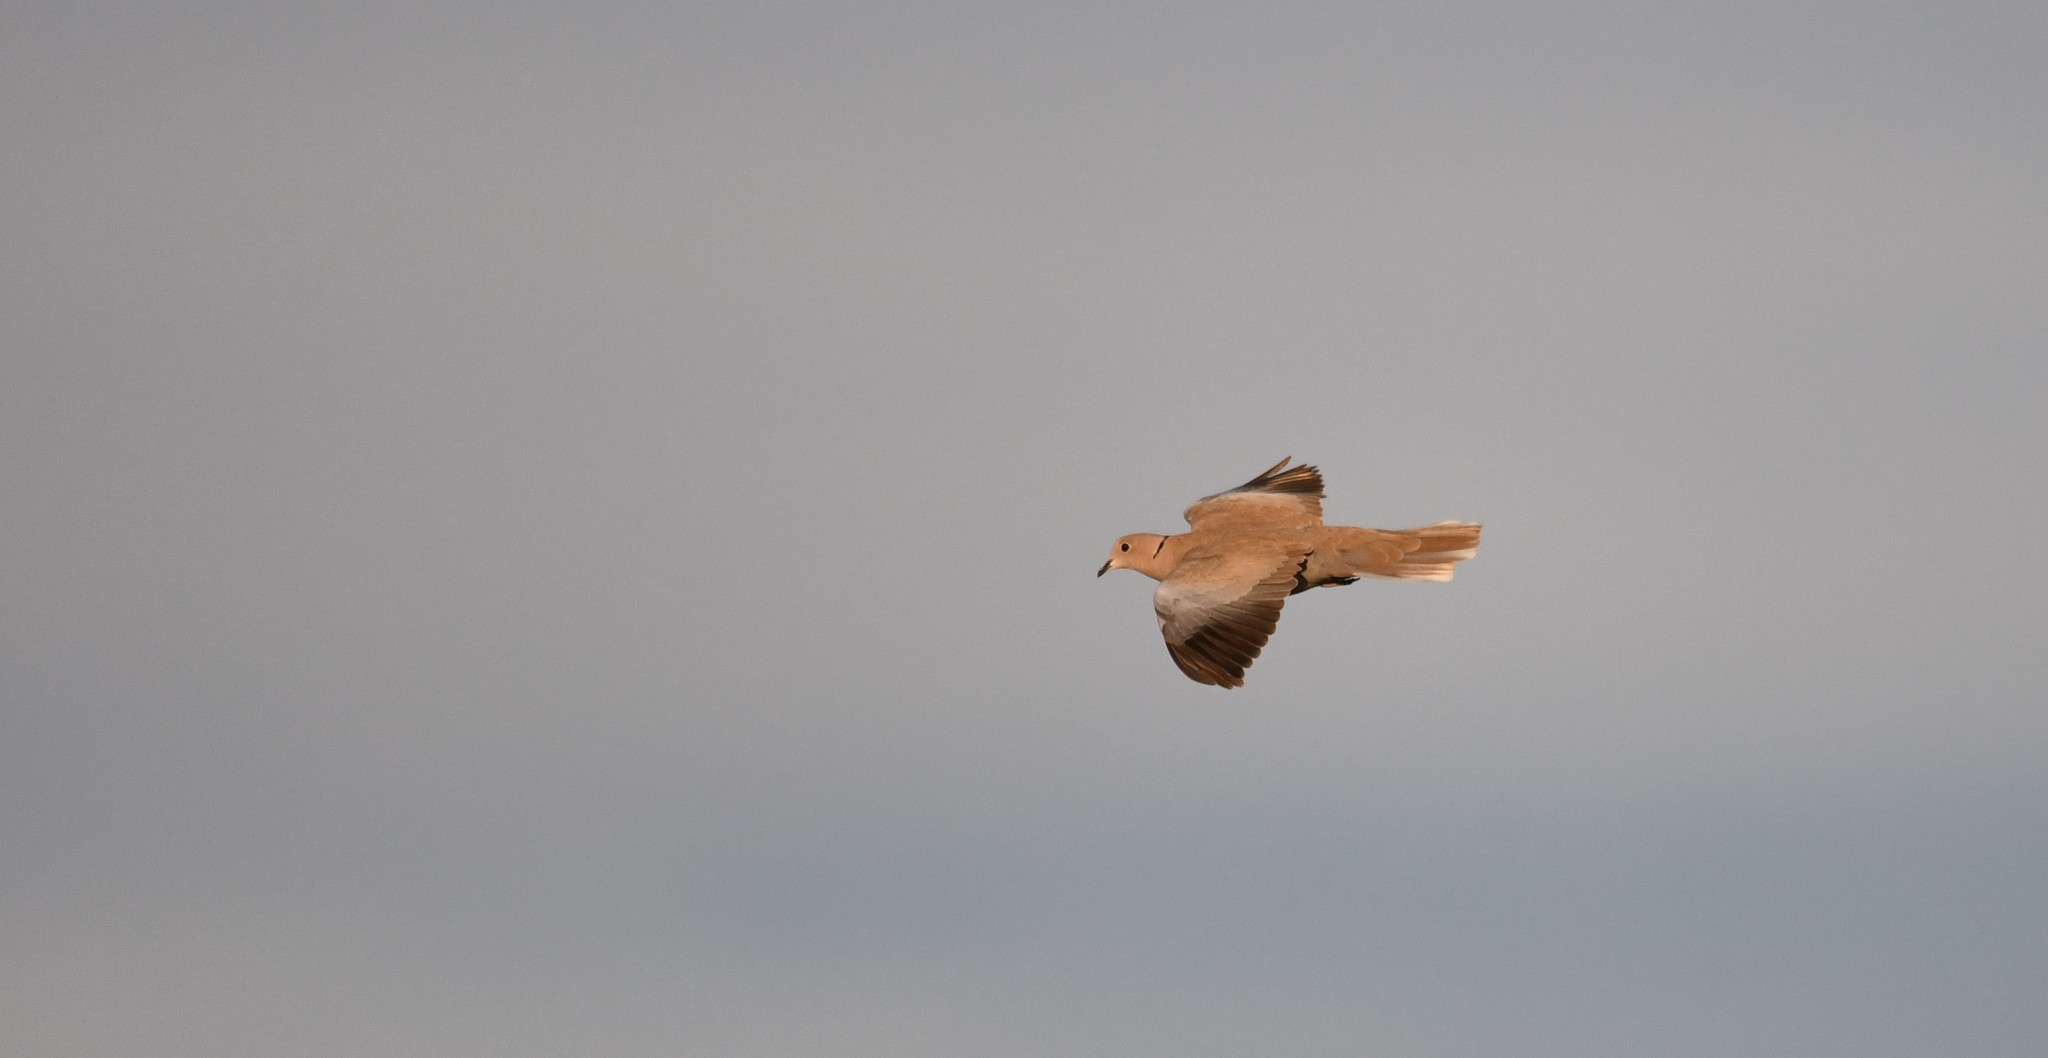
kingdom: Animalia
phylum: Chordata
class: Aves
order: Columbiformes
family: Columbidae
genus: Streptopelia
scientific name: Streptopelia decaocto
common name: Eurasian collared dove
